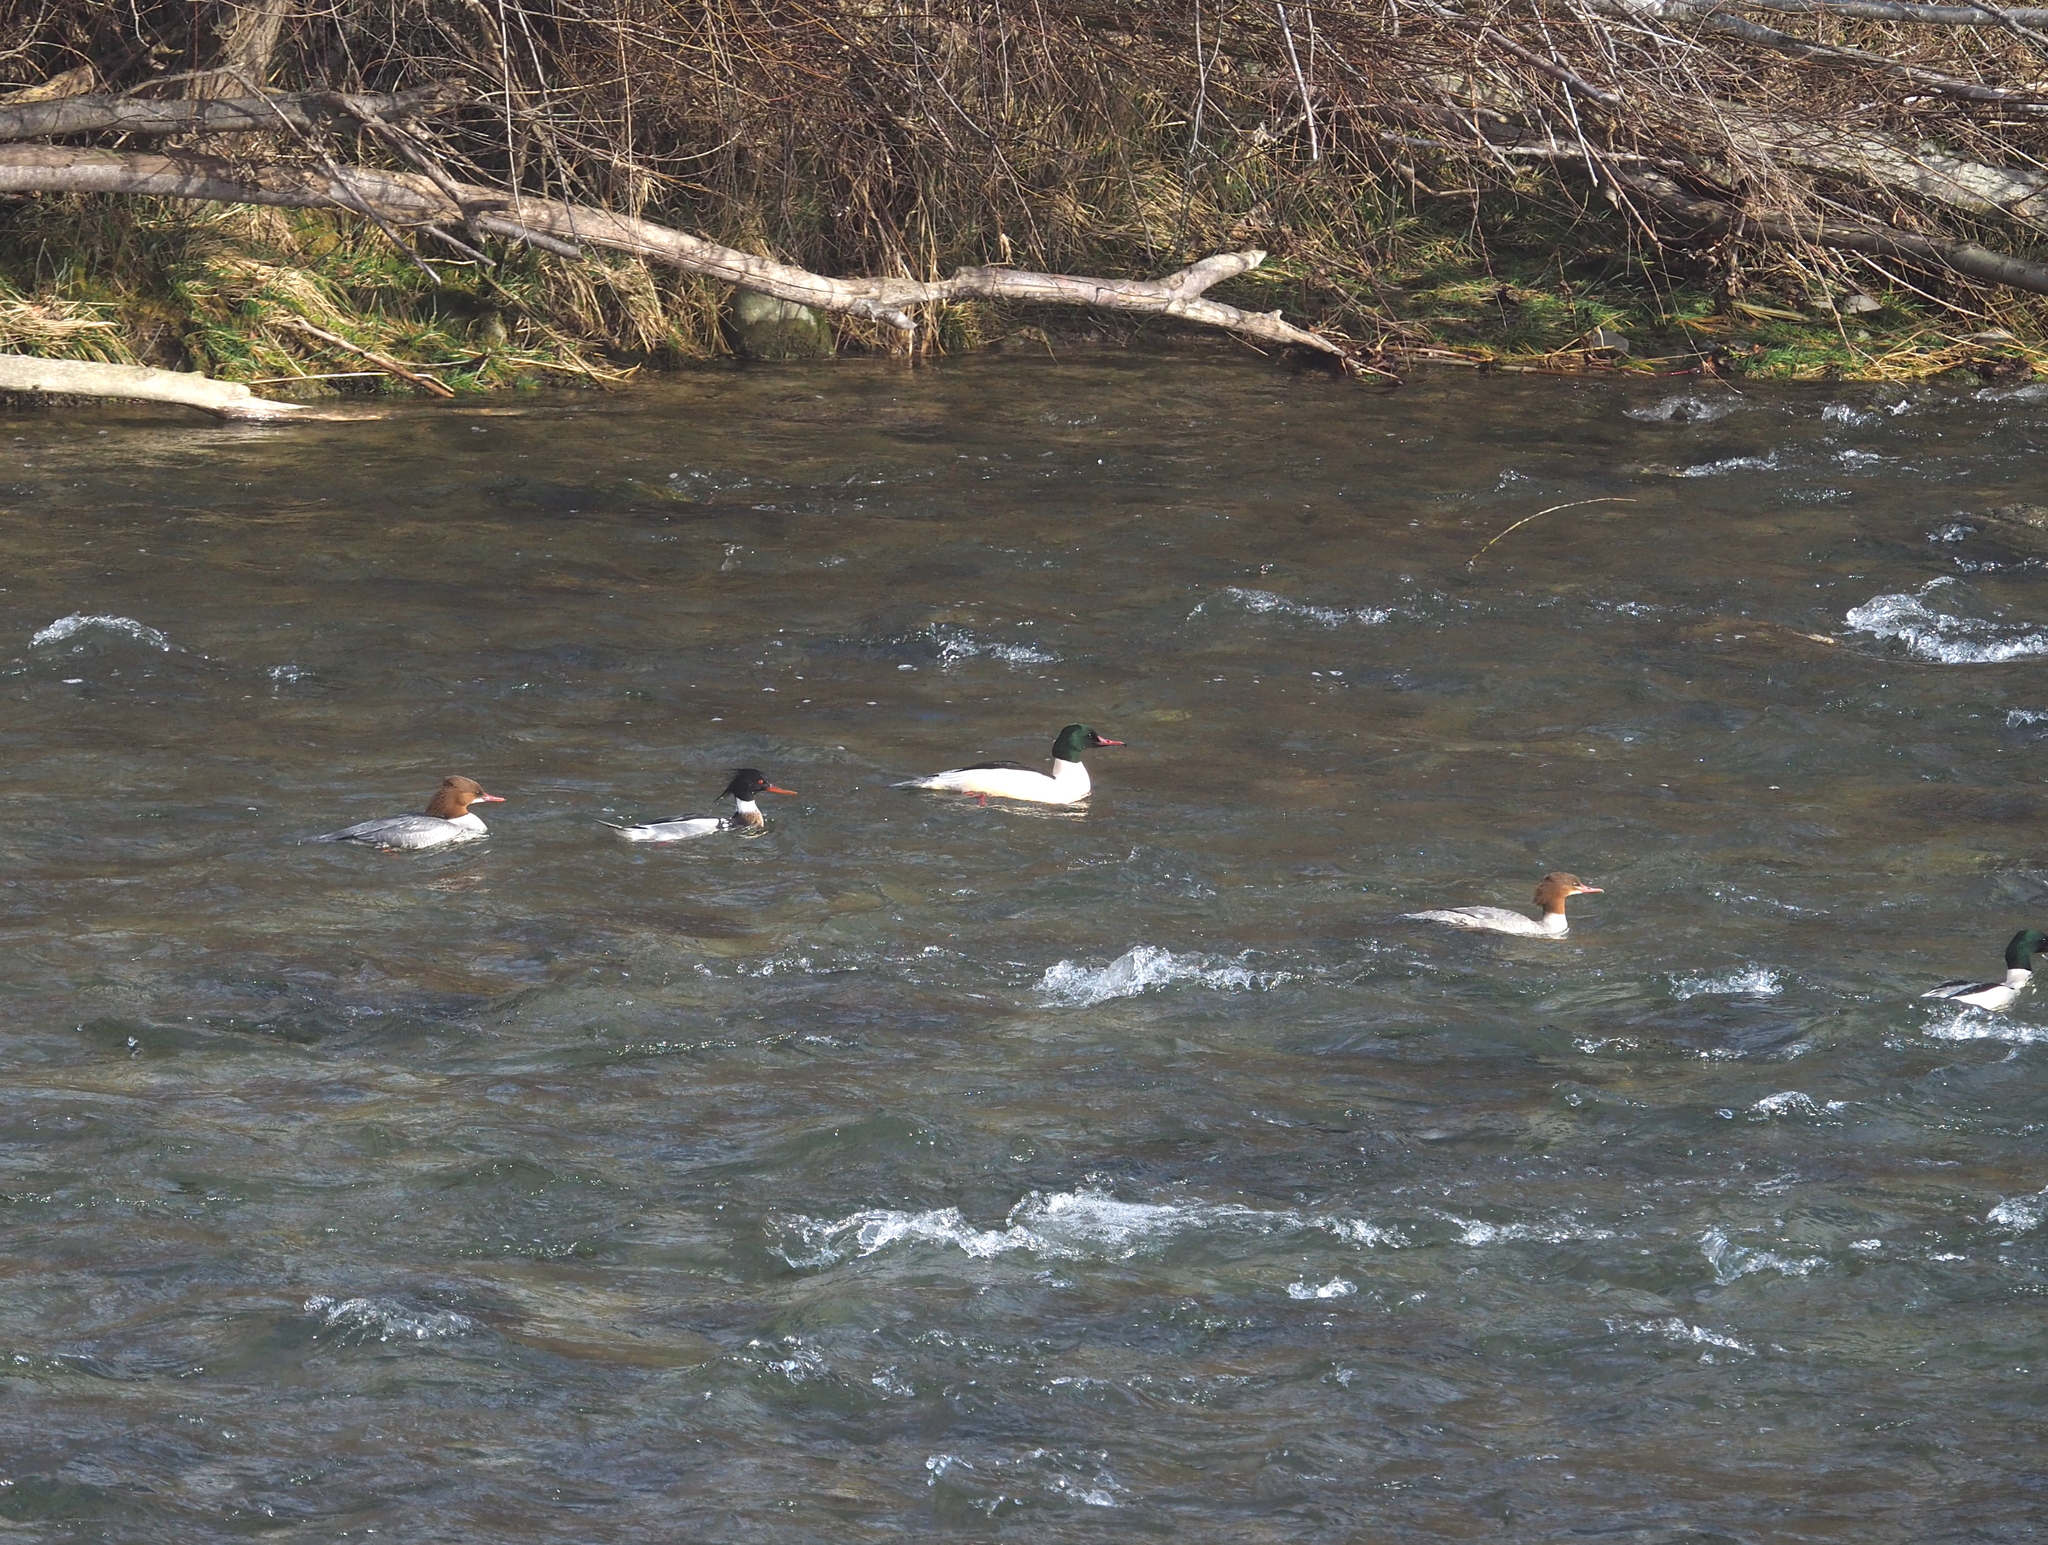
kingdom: Animalia
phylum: Chordata
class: Aves
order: Anseriformes
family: Anatidae
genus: Mergus
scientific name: Mergus serrator
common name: Red-breasted merganser
